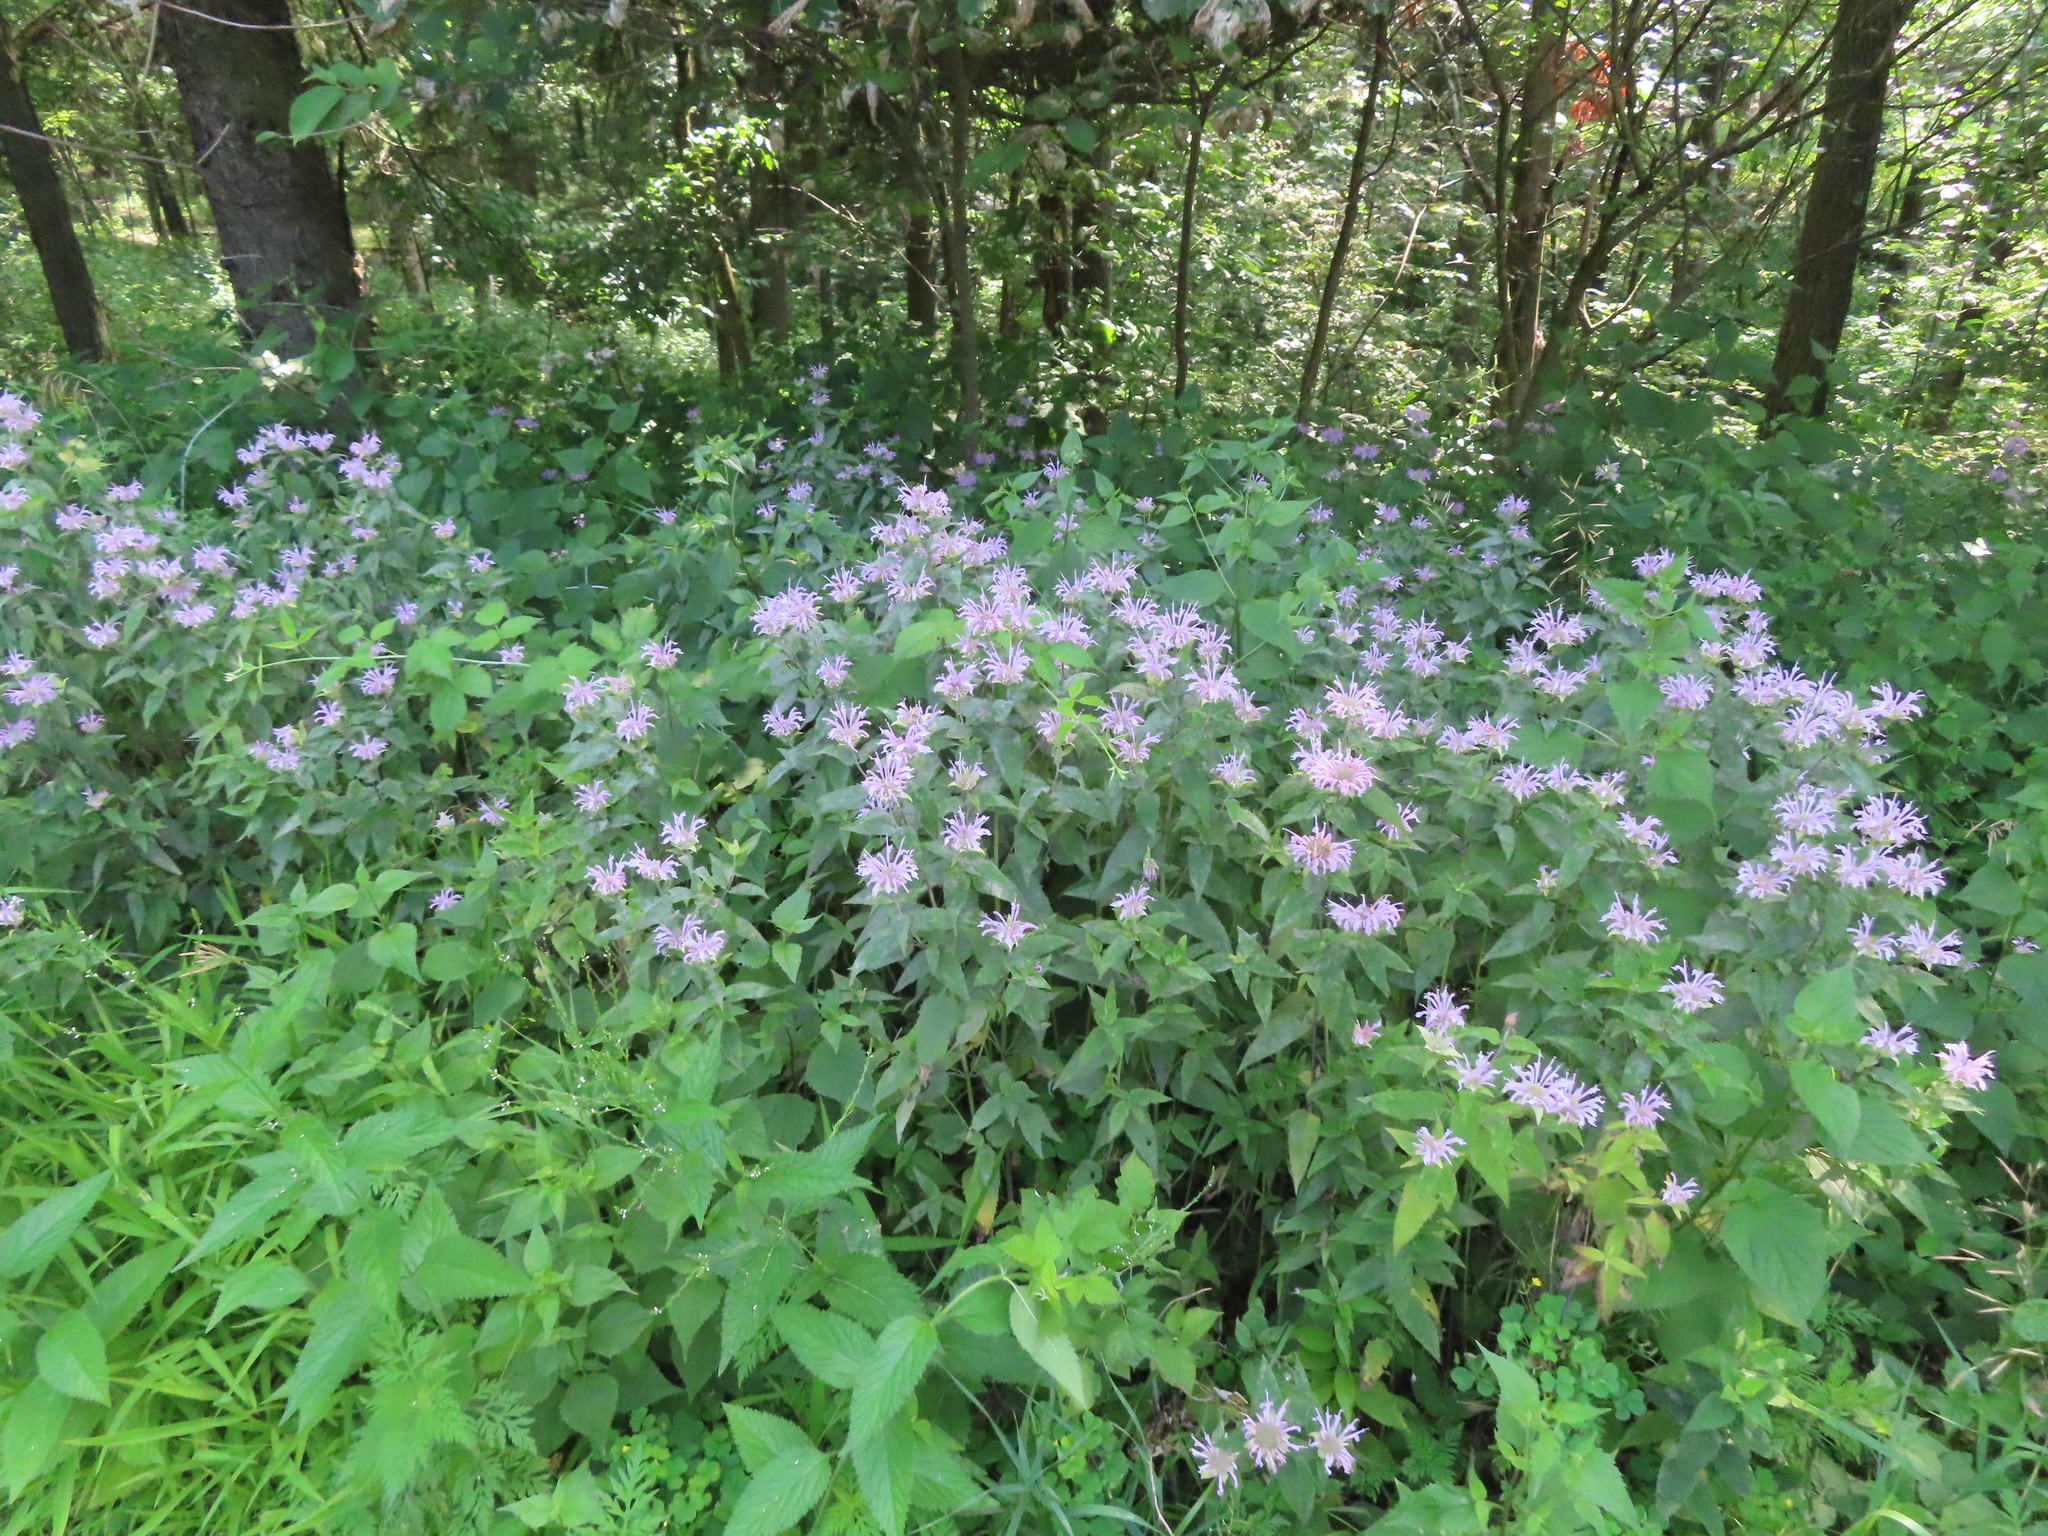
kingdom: Plantae
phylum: Tracheophyta
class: Magnoliopsida
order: Lamiales
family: Lamiaceae
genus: Monarda
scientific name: Monarda fistulosa
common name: Purple beebalm
